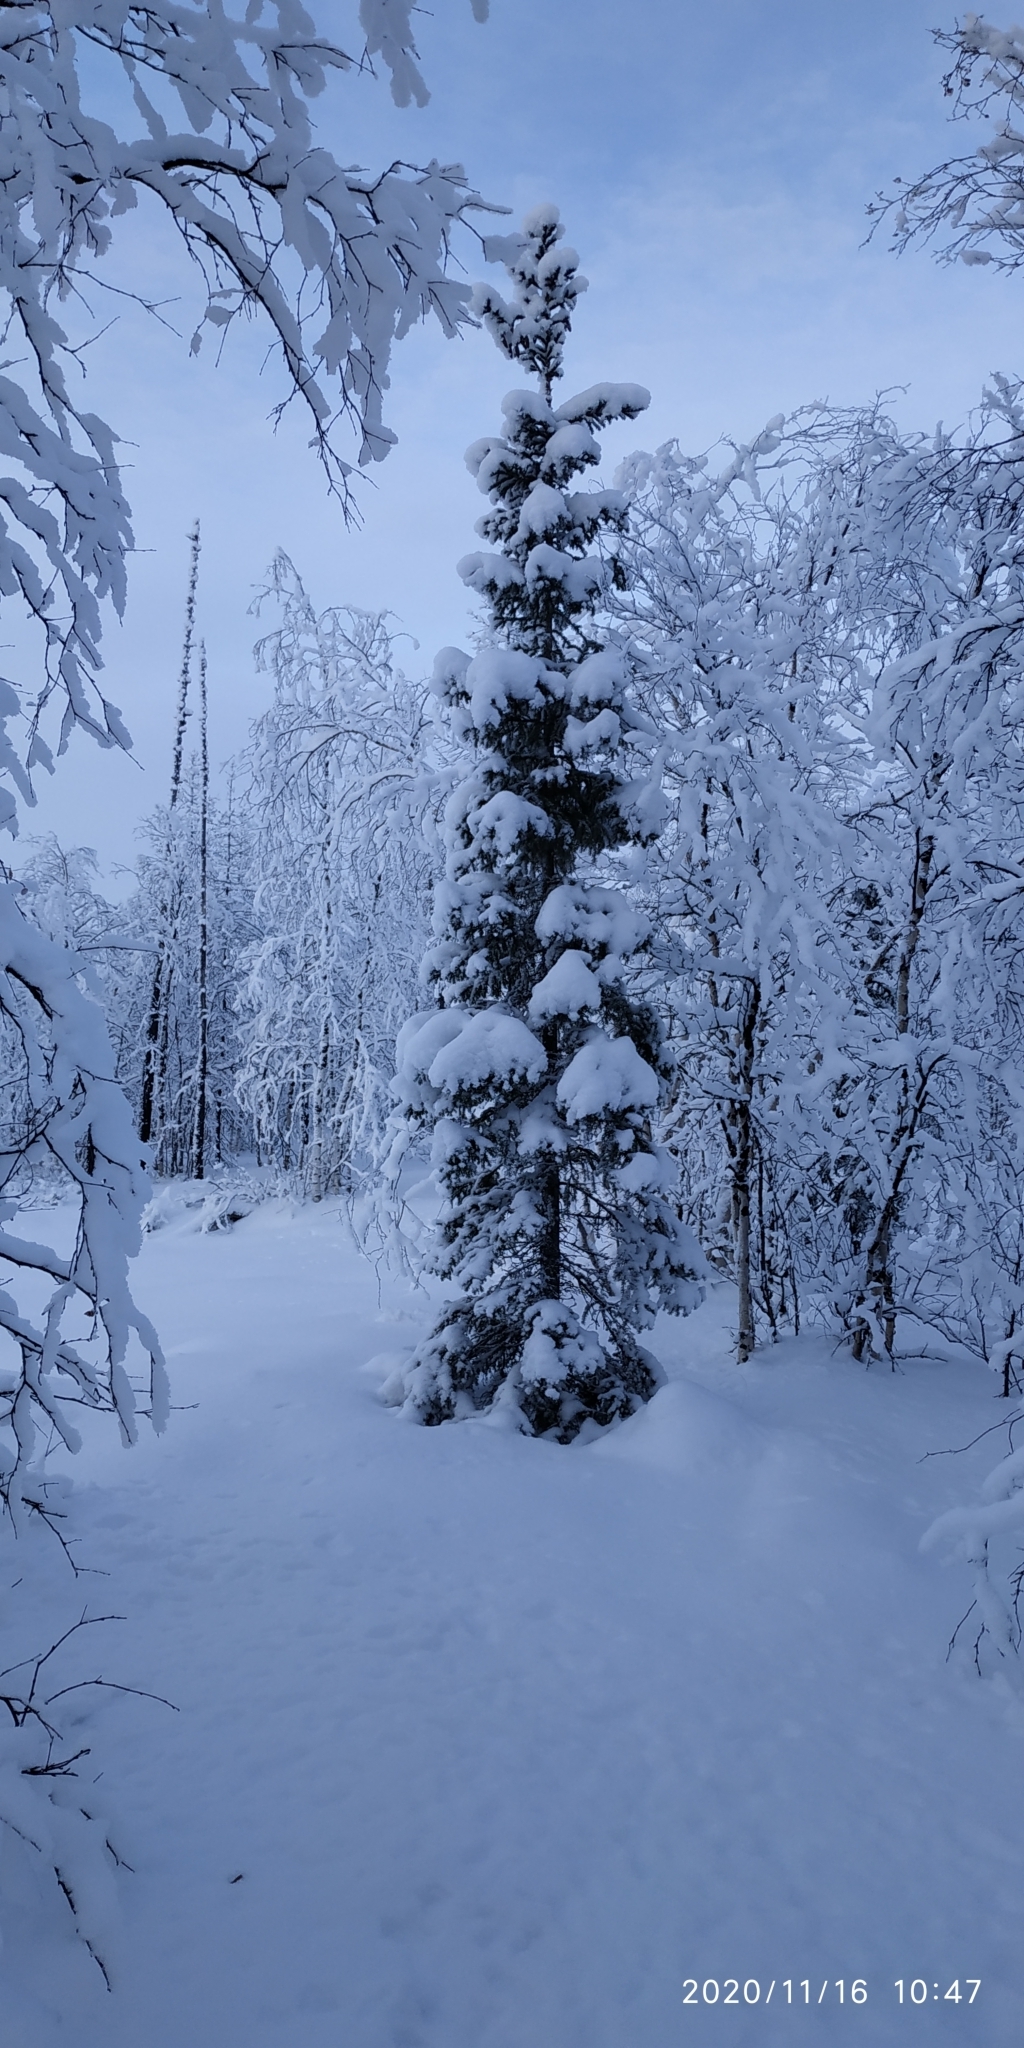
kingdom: Plantae
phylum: Tracheophyta
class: Pinopsida
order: Pinales
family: Pinaceae
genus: Picea
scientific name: Picea obovata
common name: Siberian spruce
